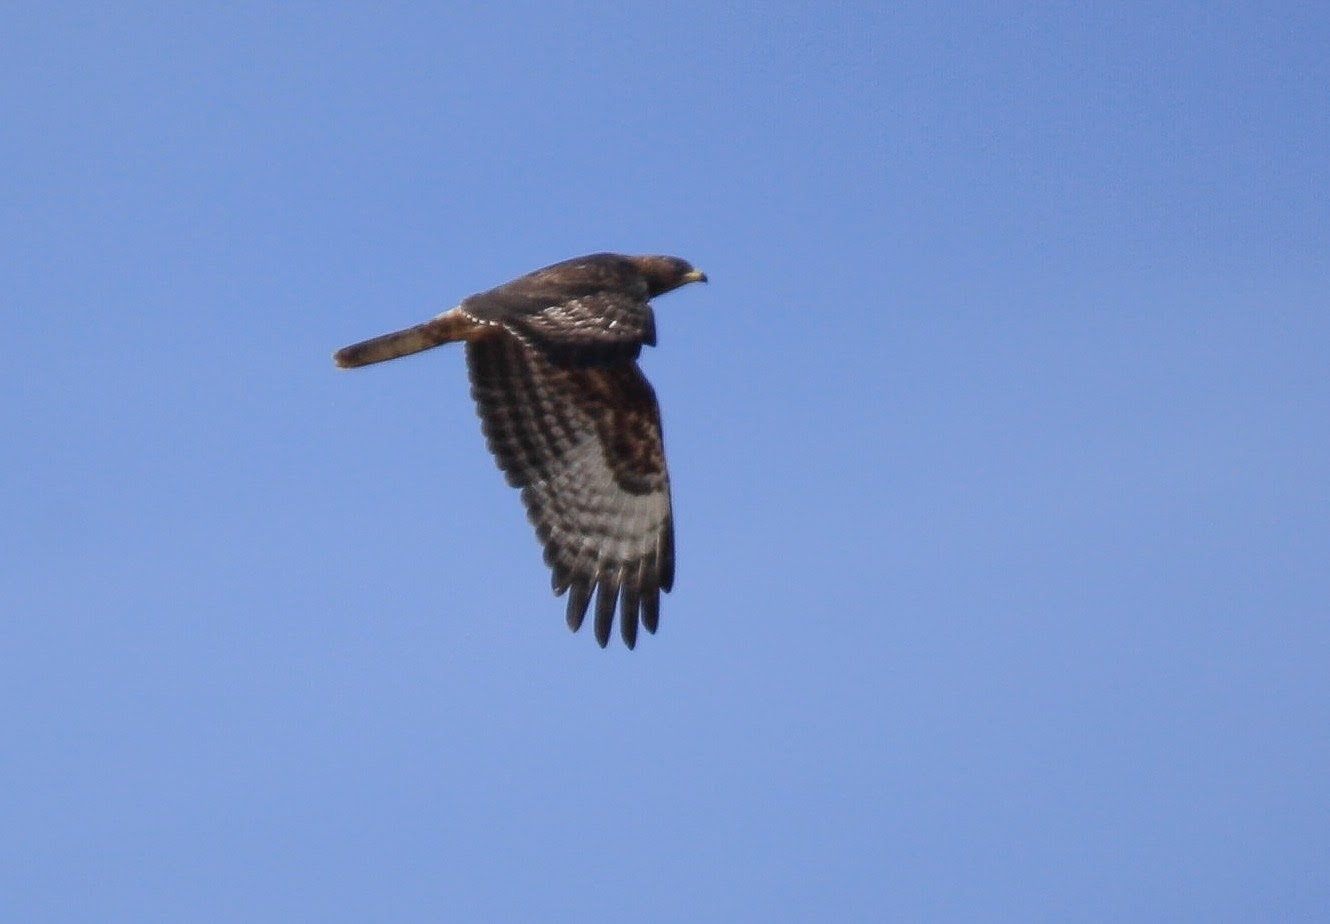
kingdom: Animalia
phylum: Chordata
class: Aves
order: Accipitriformes
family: Accipitridae
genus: Pernis
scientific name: Pernis apivorus
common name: European honey buzzard
